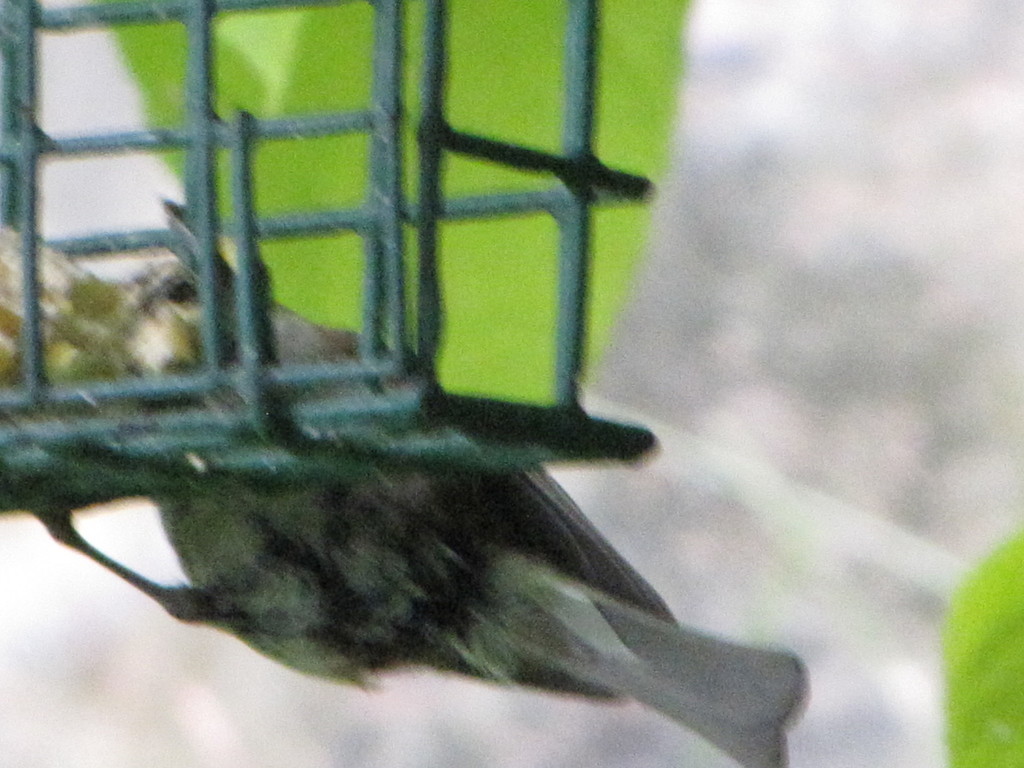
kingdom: Animalia
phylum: Chordata
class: Aves
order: Passeriformes
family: Paridae
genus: Poecile
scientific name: Poecile rufescens
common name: Chestnut-backed chickadee
